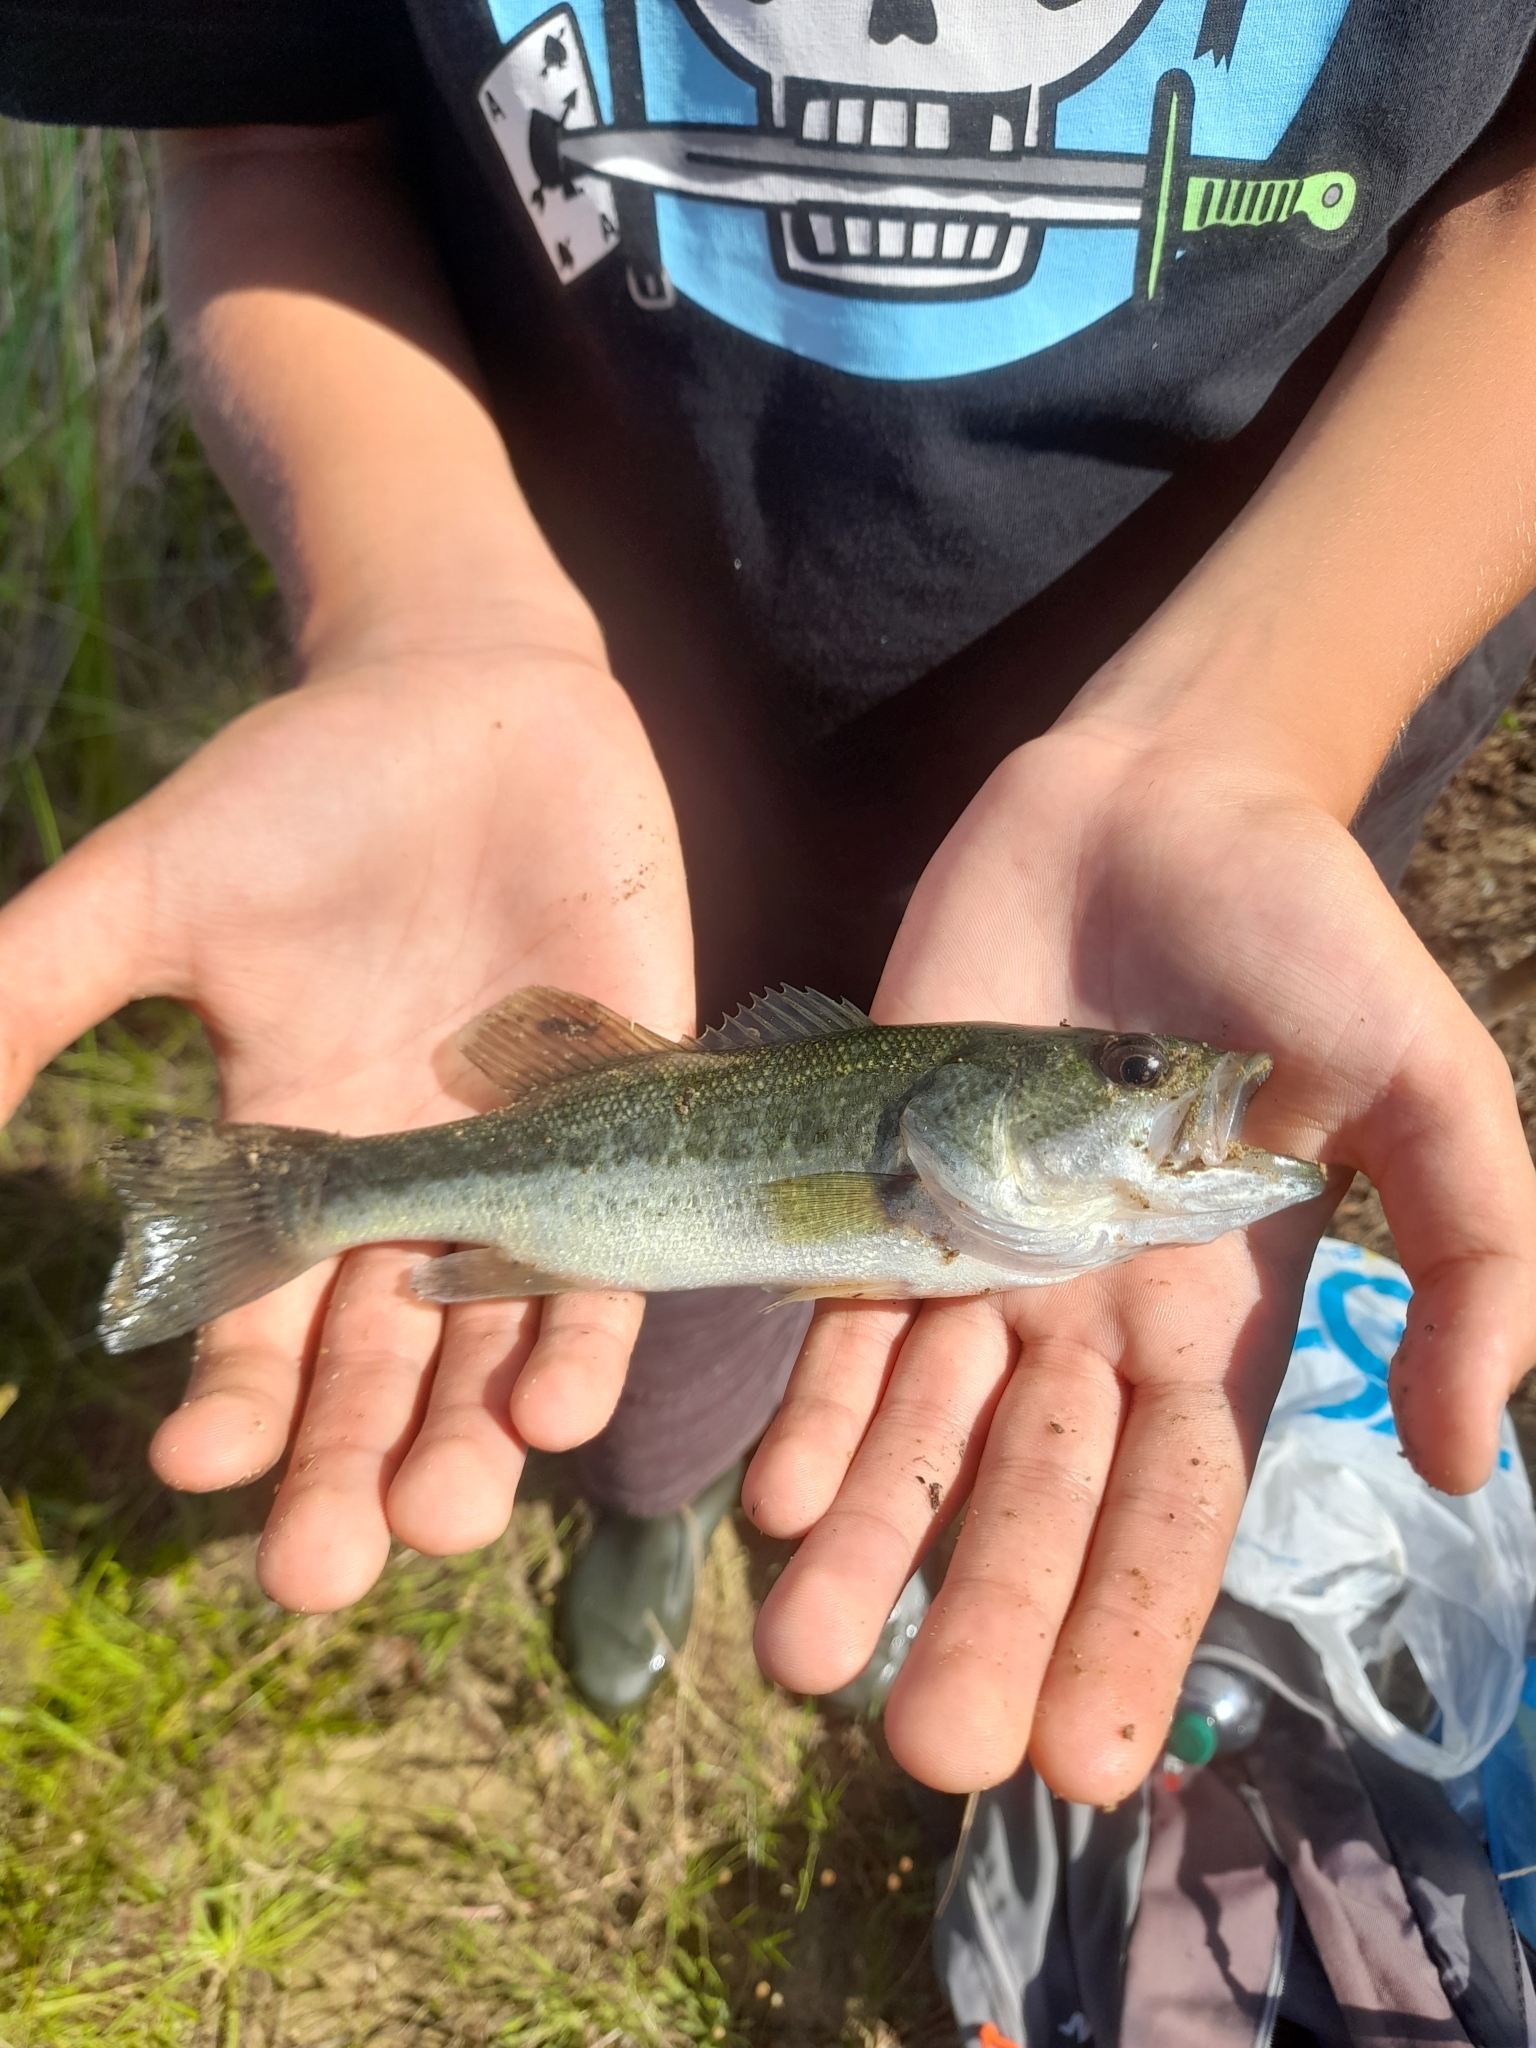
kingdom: Animalia
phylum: Chordata
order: Perciformes
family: Centrarchidae
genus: Micropterus
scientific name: Micropterus
